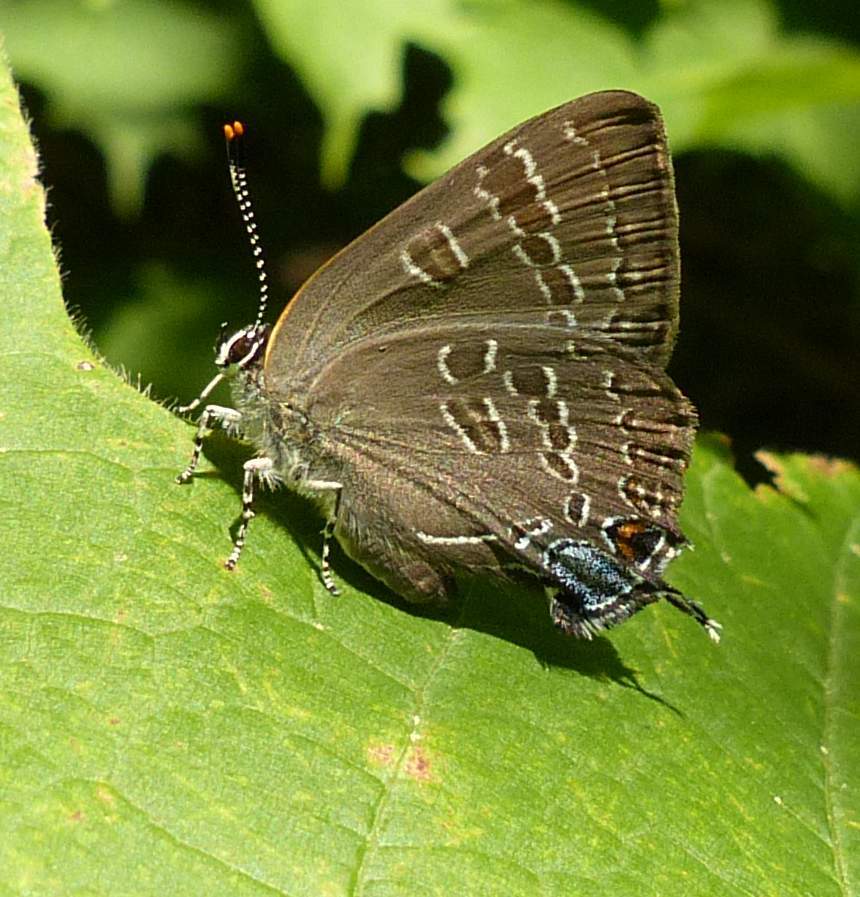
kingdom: Animalia
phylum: Arthropoda
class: Insecta
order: Lepidoptera
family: Lycaenidae
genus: Strymon
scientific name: Strymon caryaevorus
